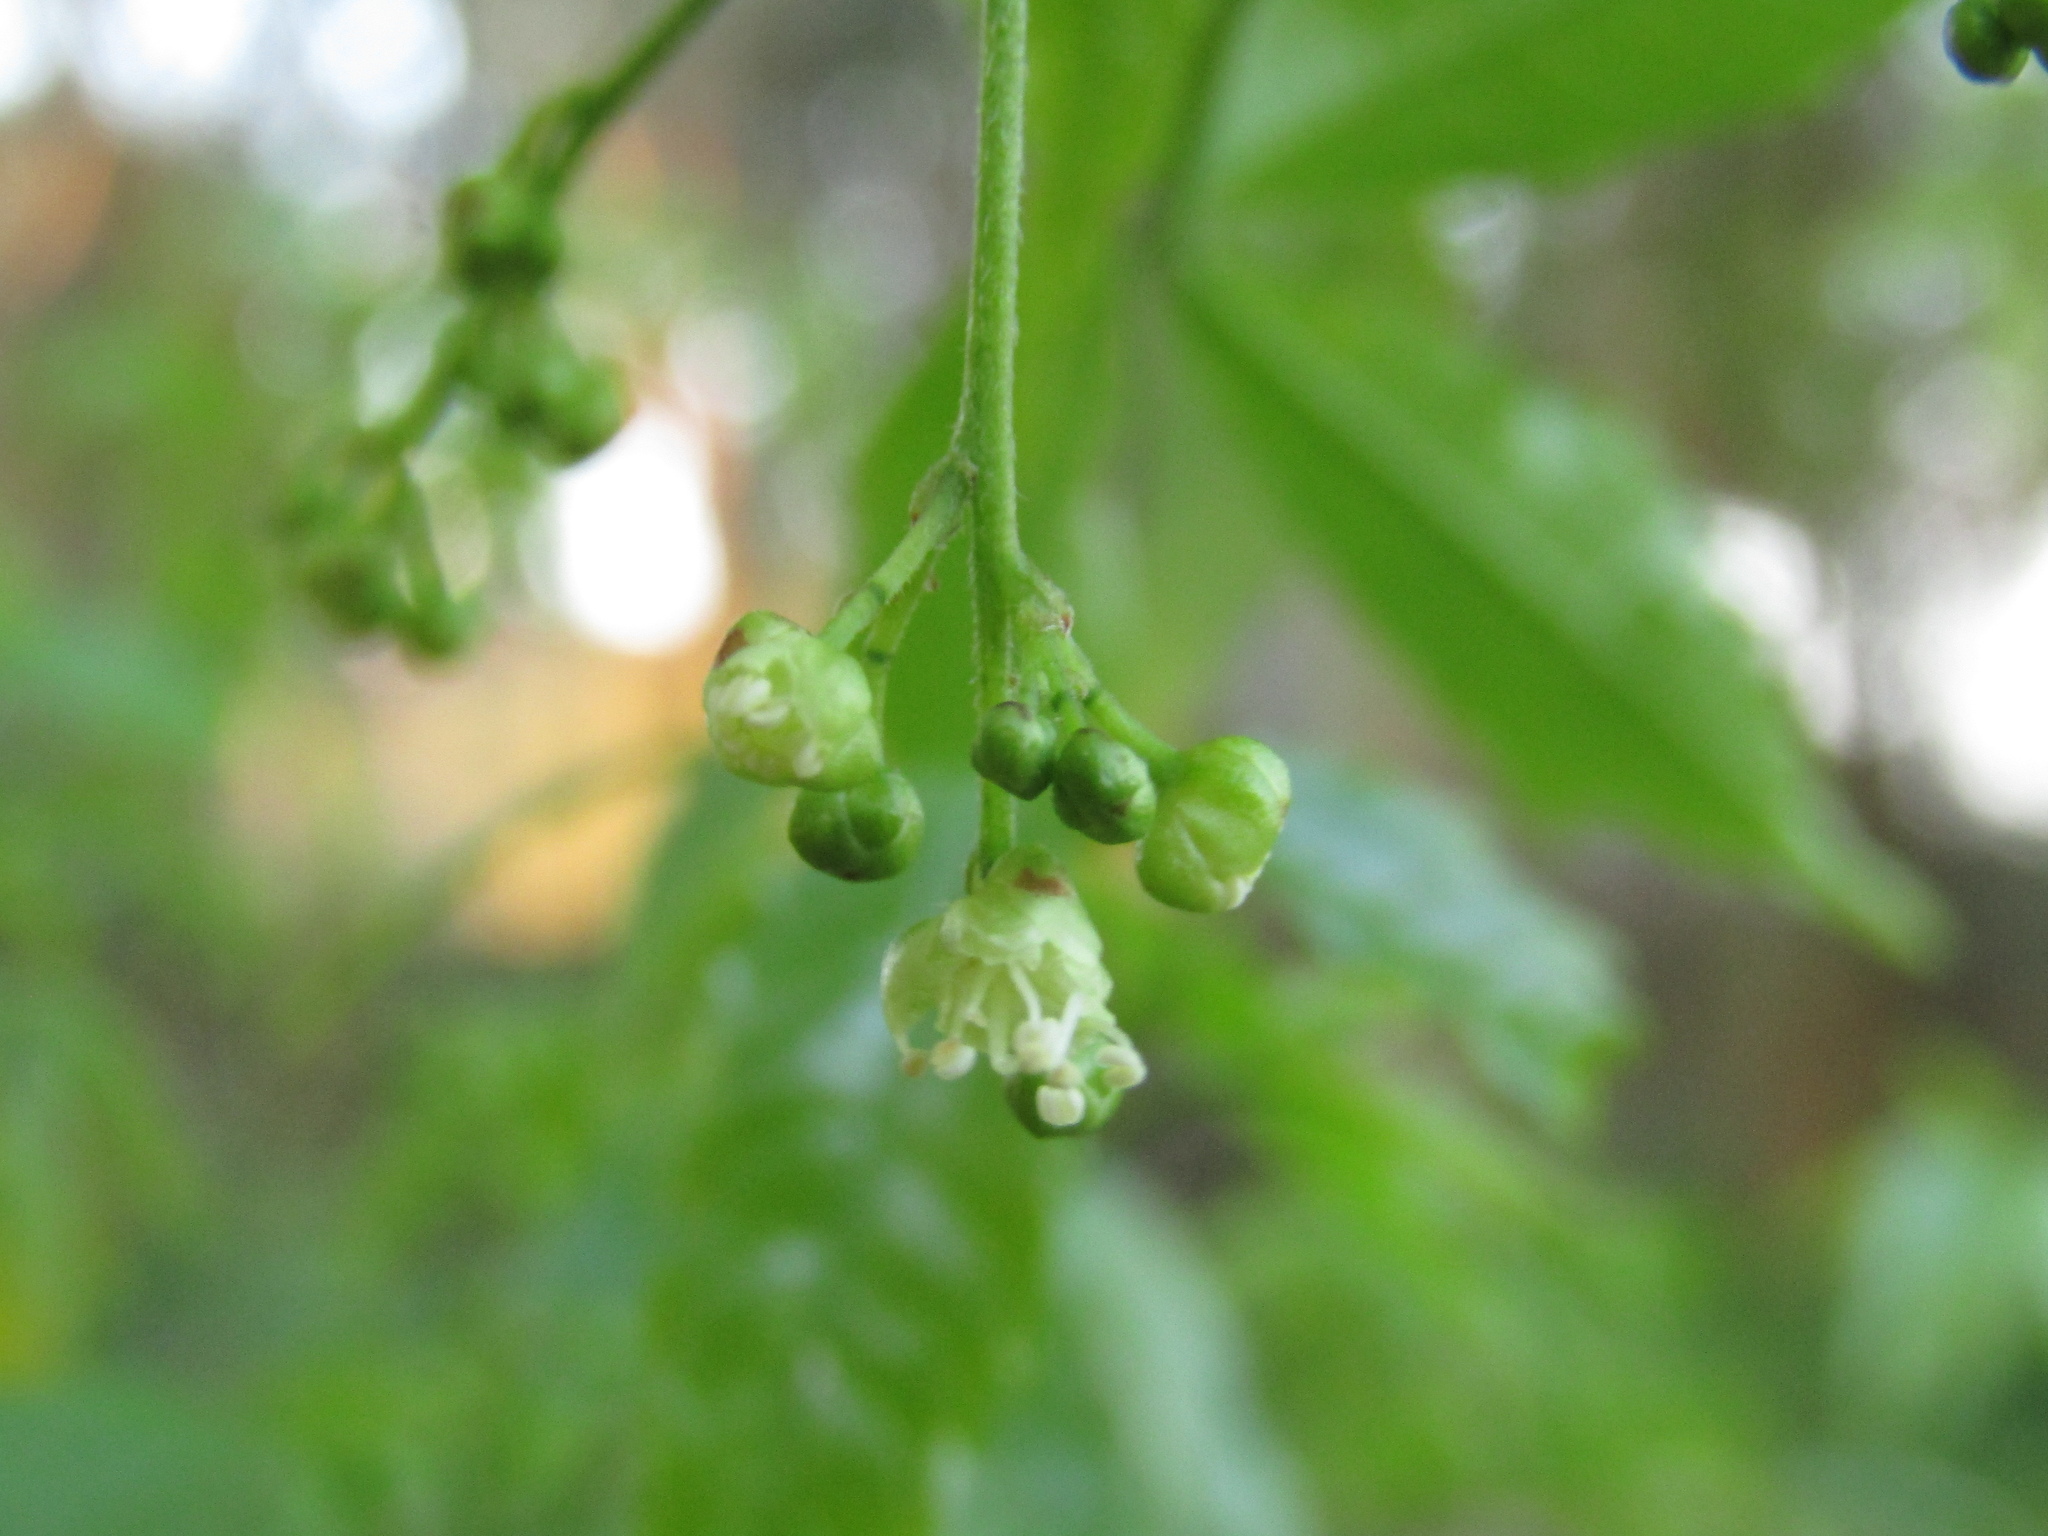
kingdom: Plantae
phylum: Tracheophyta
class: Magnoliopsida
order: Sapindales
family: Sapindaceae
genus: Allophylus
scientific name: Allophylus edulis
